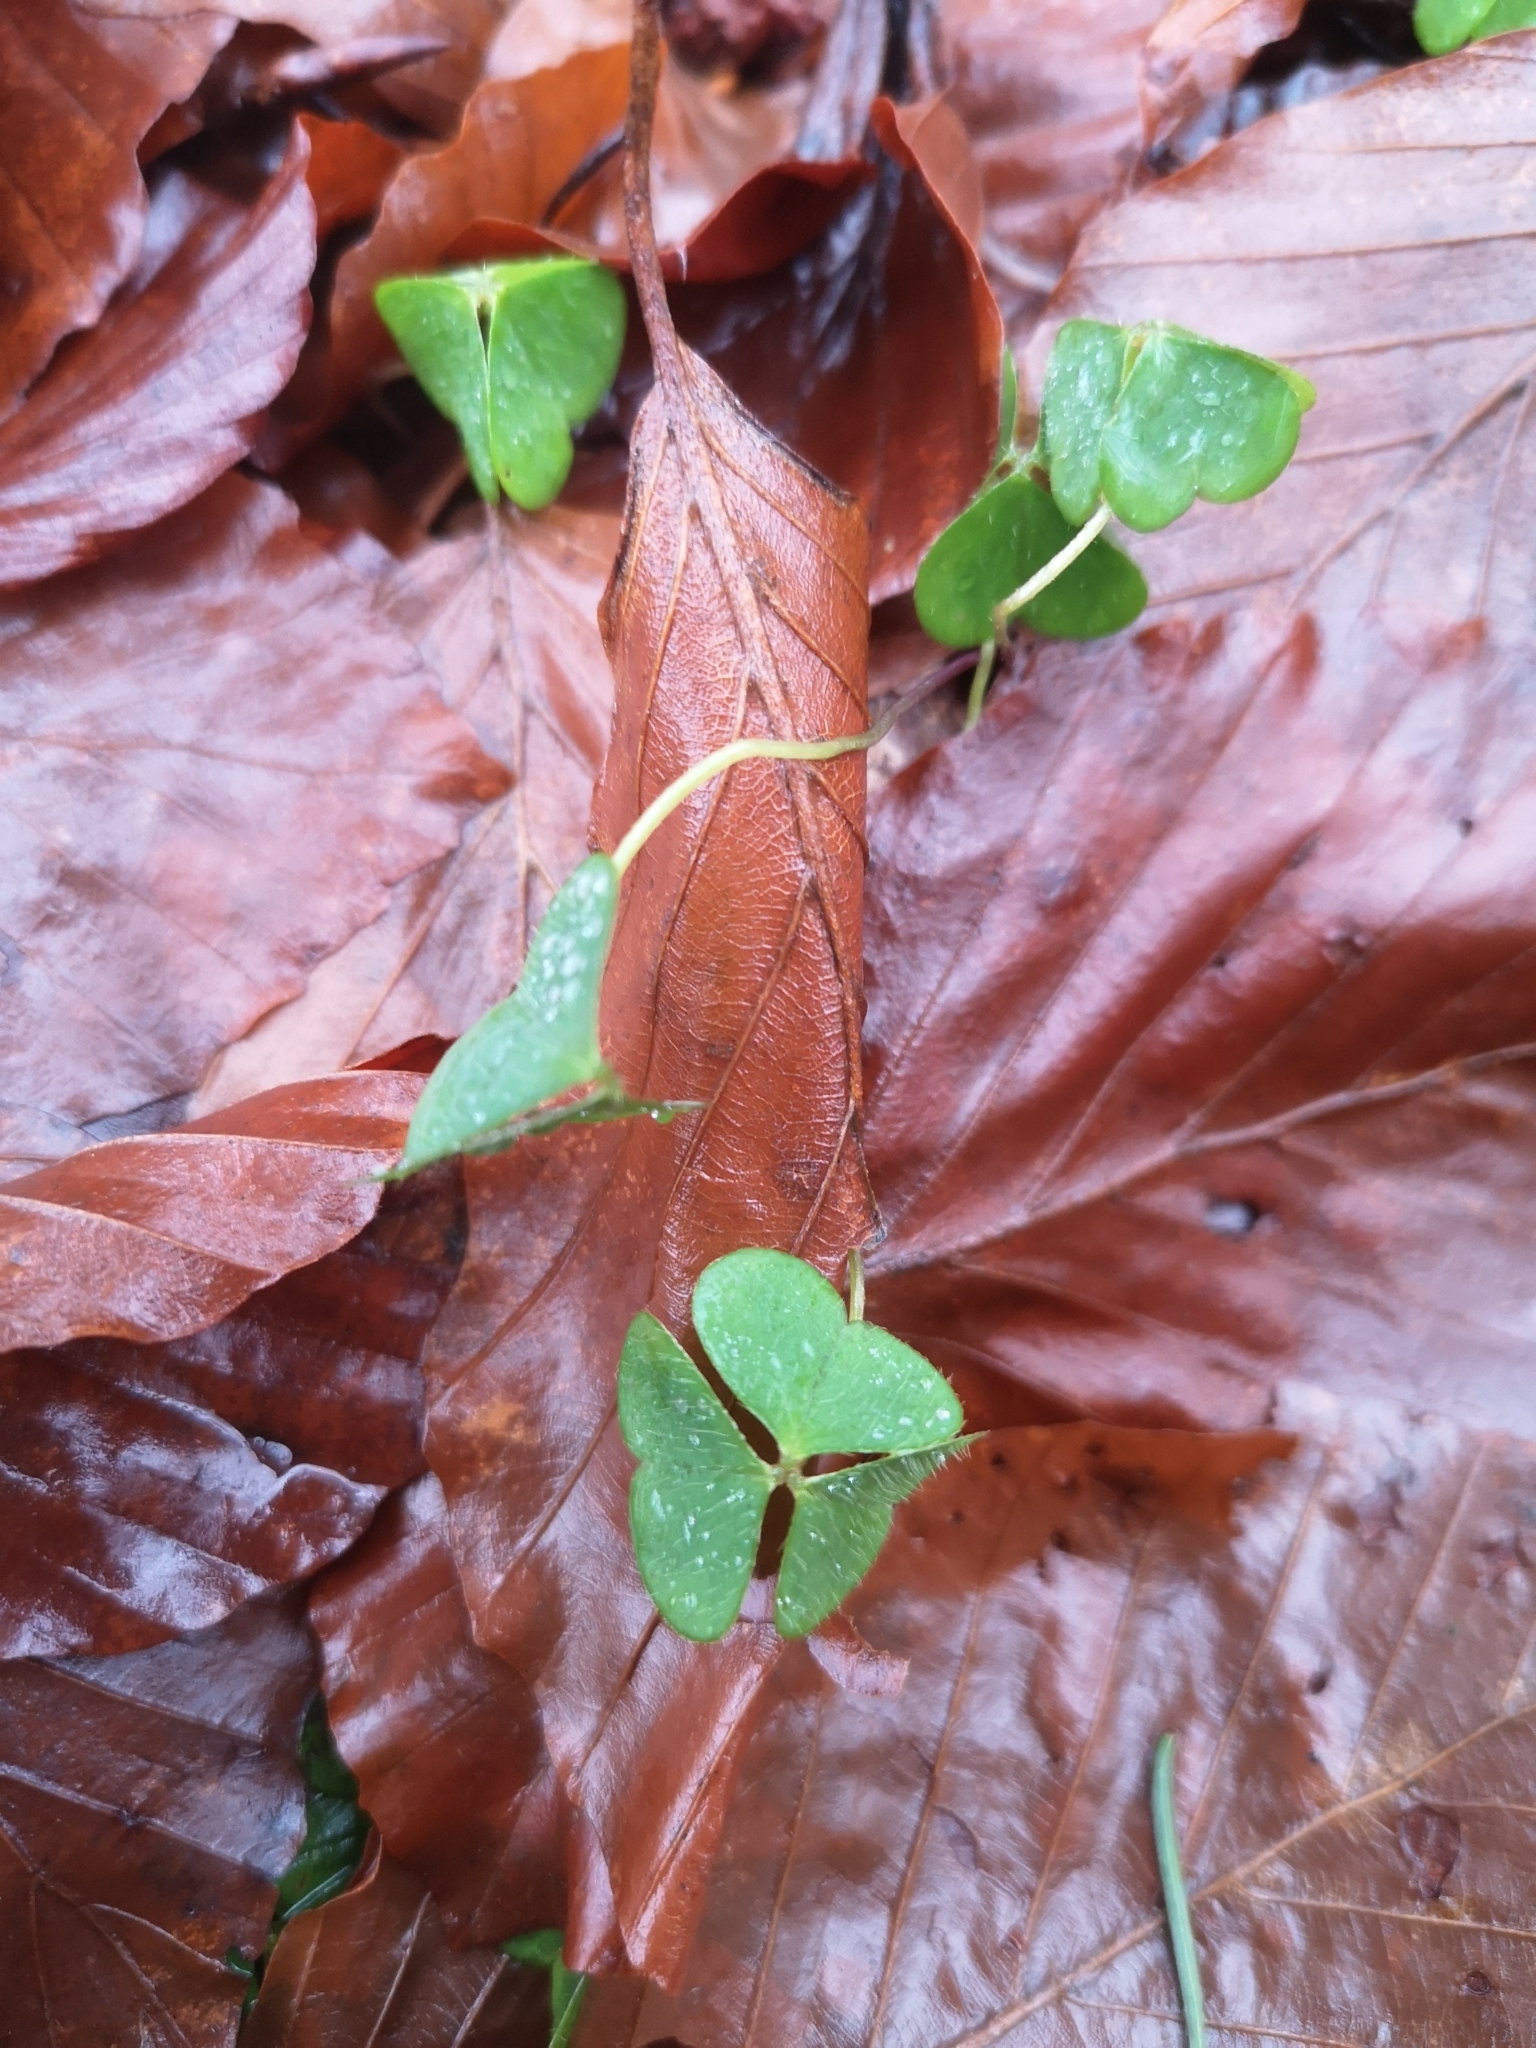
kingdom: Plantae
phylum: Tracheophyta
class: Magnoliopsida
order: Oxalidales
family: Oxalidaceae
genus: Oxalis
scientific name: Oxalis acetosella
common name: Wood-sorrel
